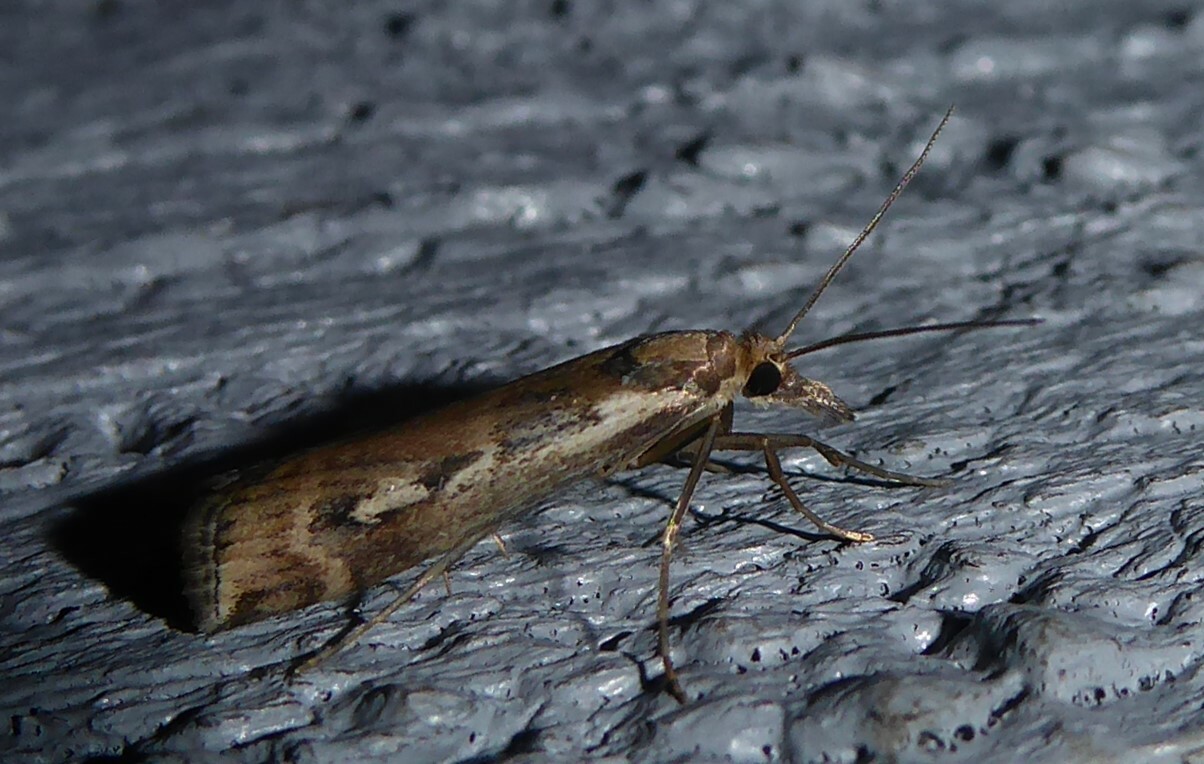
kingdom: Animalia
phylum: Arthropoda
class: Insecta
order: Lepidoptera
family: Crambidae
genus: Orocrambus
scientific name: Orocrambus vulgaris
